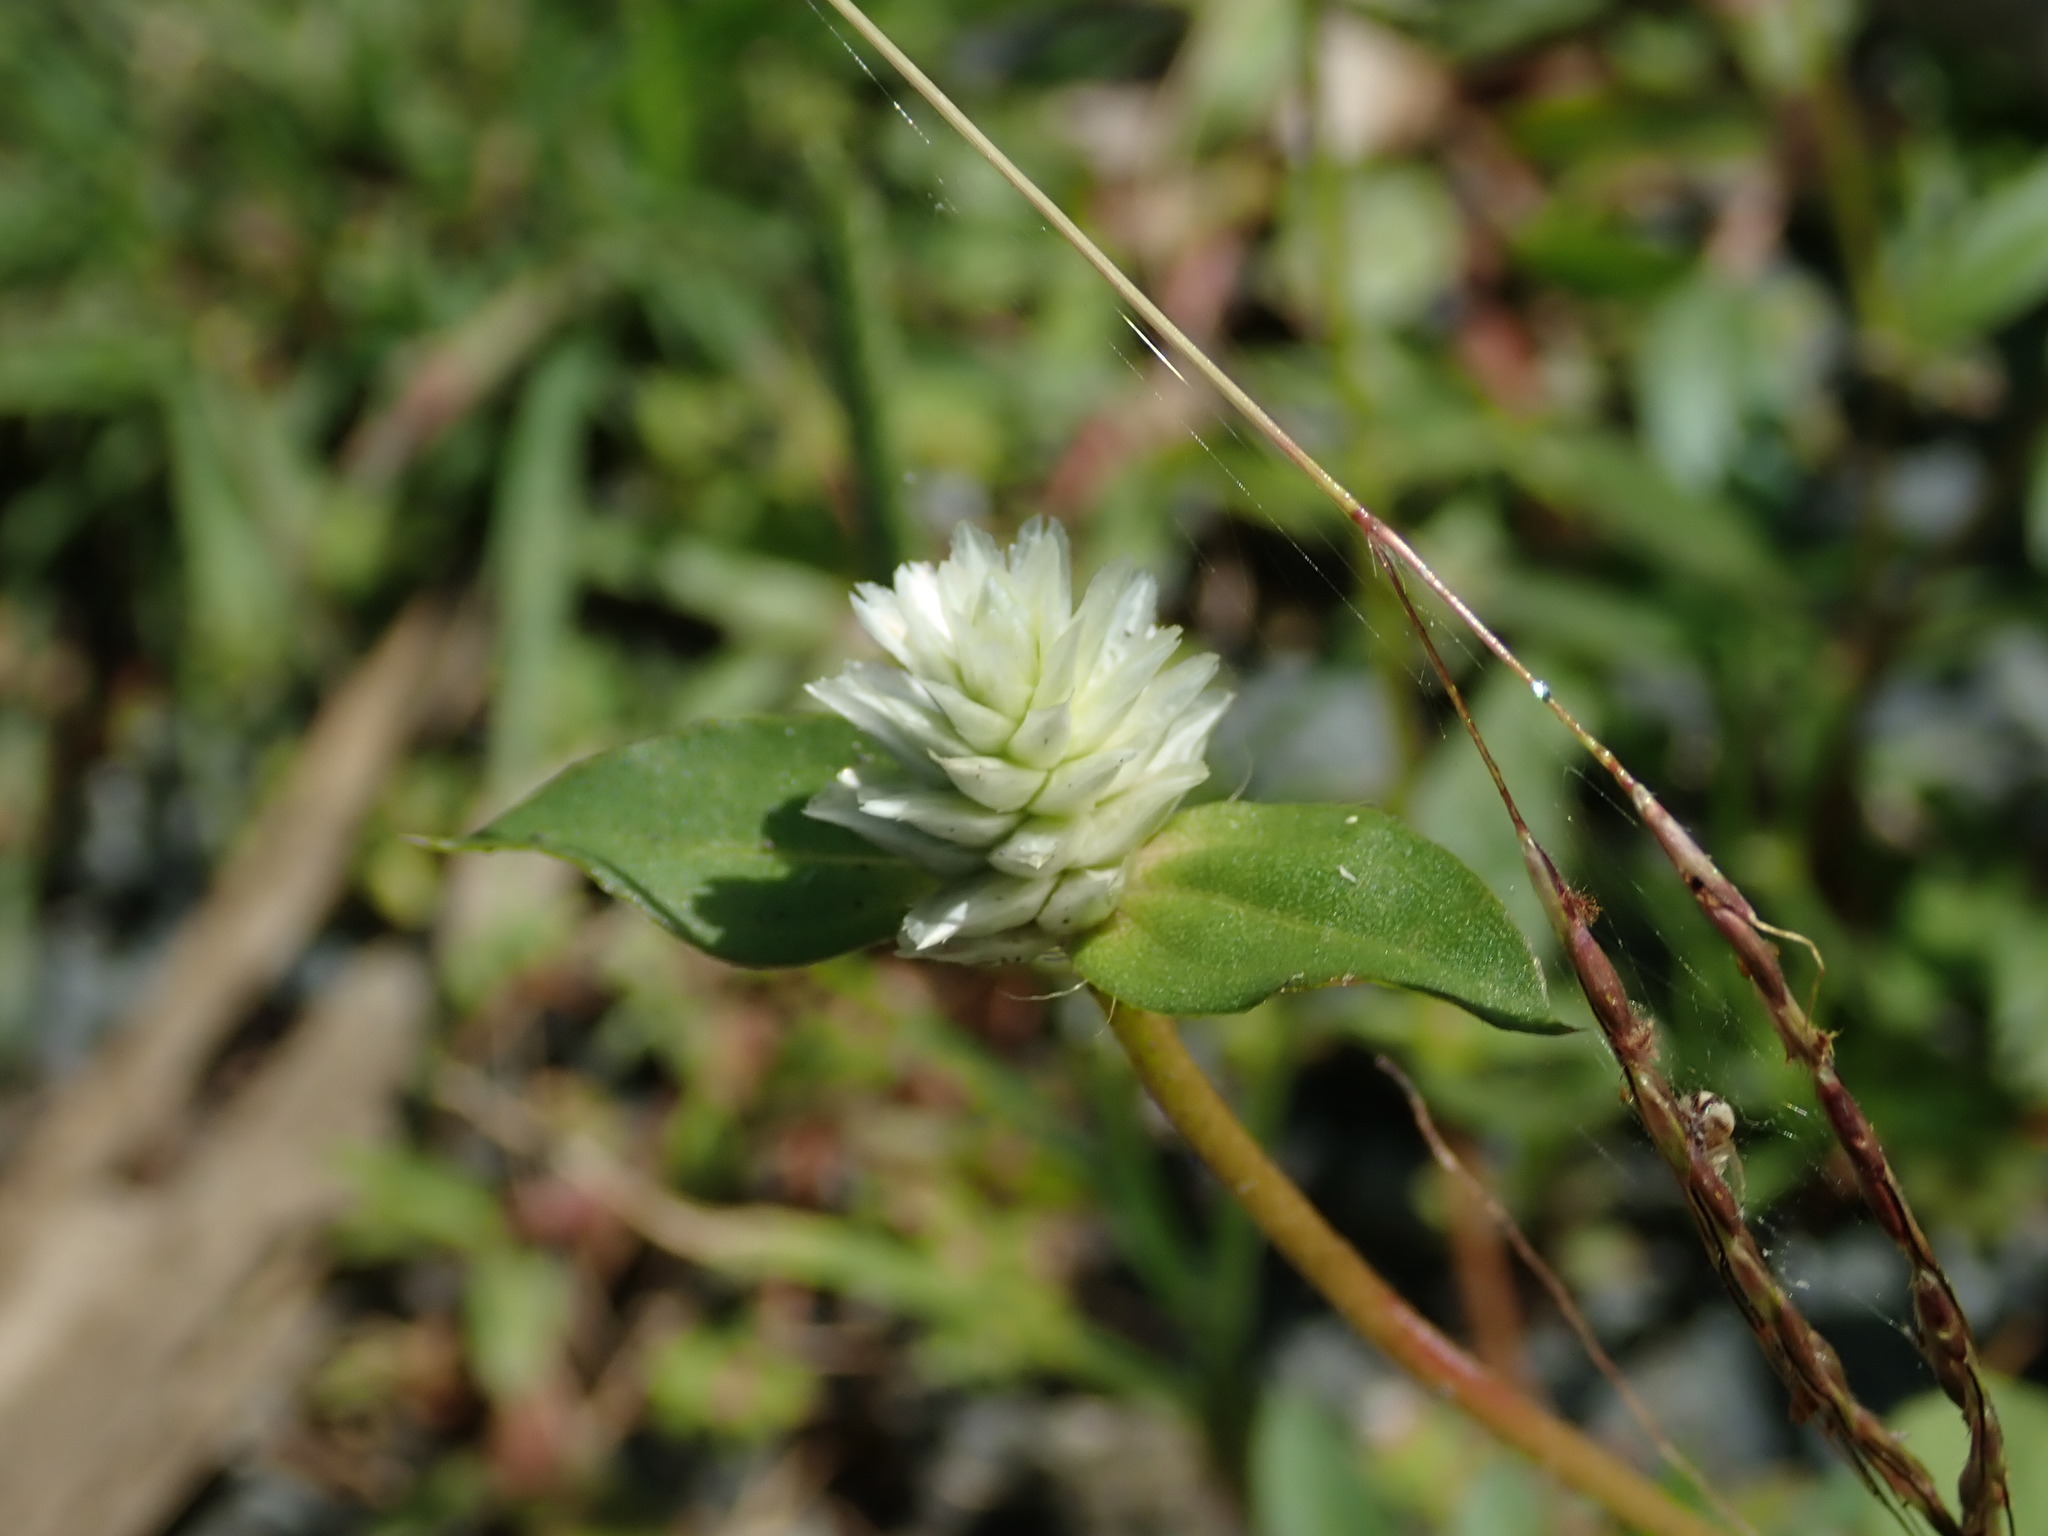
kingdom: Plantae
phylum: Tracheophyta
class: Magnoliopsida
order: Caryophyllales
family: Amaranthaceae
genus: Gomphrena
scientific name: Gomphrena serrata
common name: Arrasa con todo
